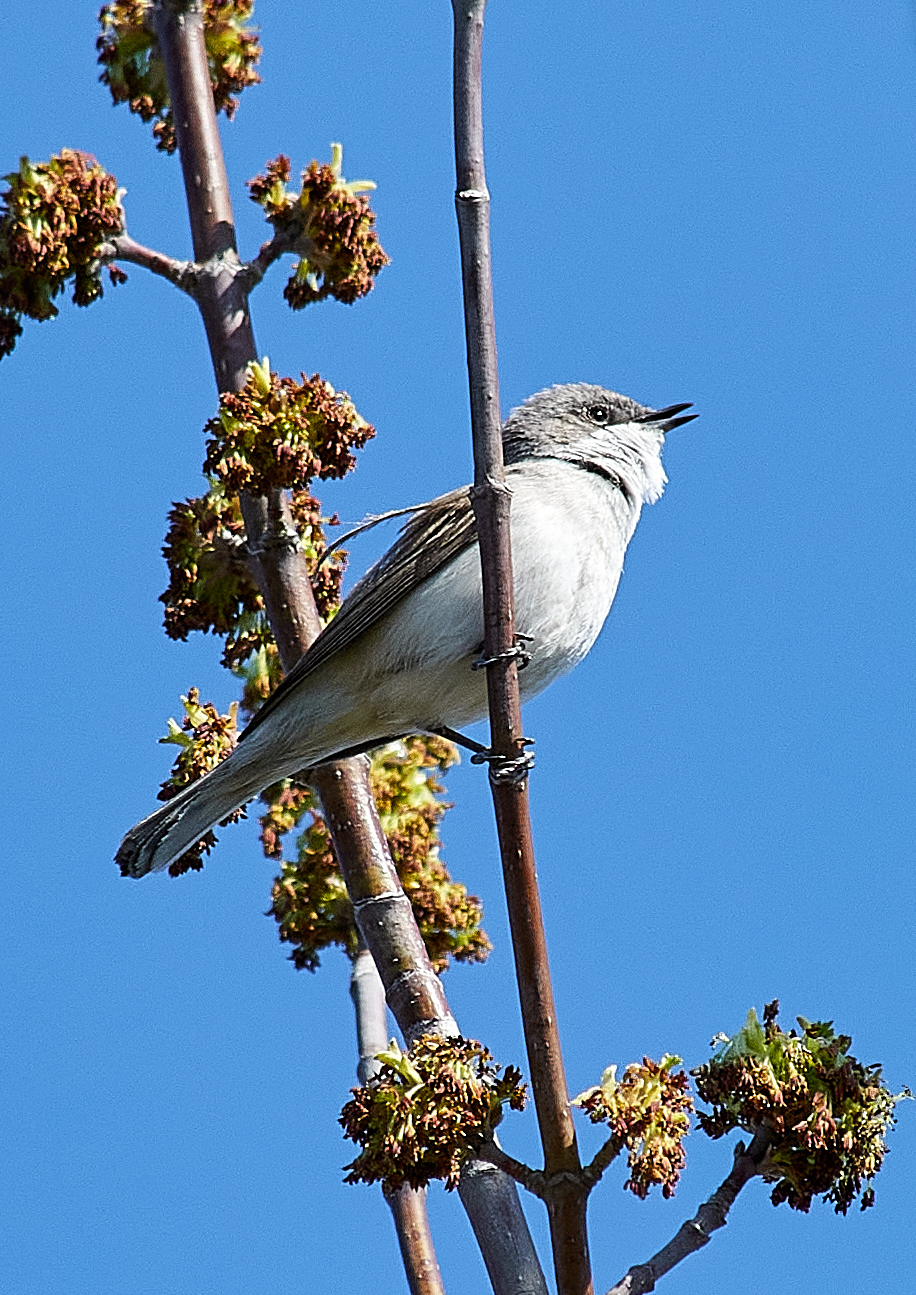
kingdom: Animalia
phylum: Chordata
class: Aves
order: Passeriformes
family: Sylviidae
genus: Sylvia
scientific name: Sylvia curruca
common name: Lesser whitethroat
